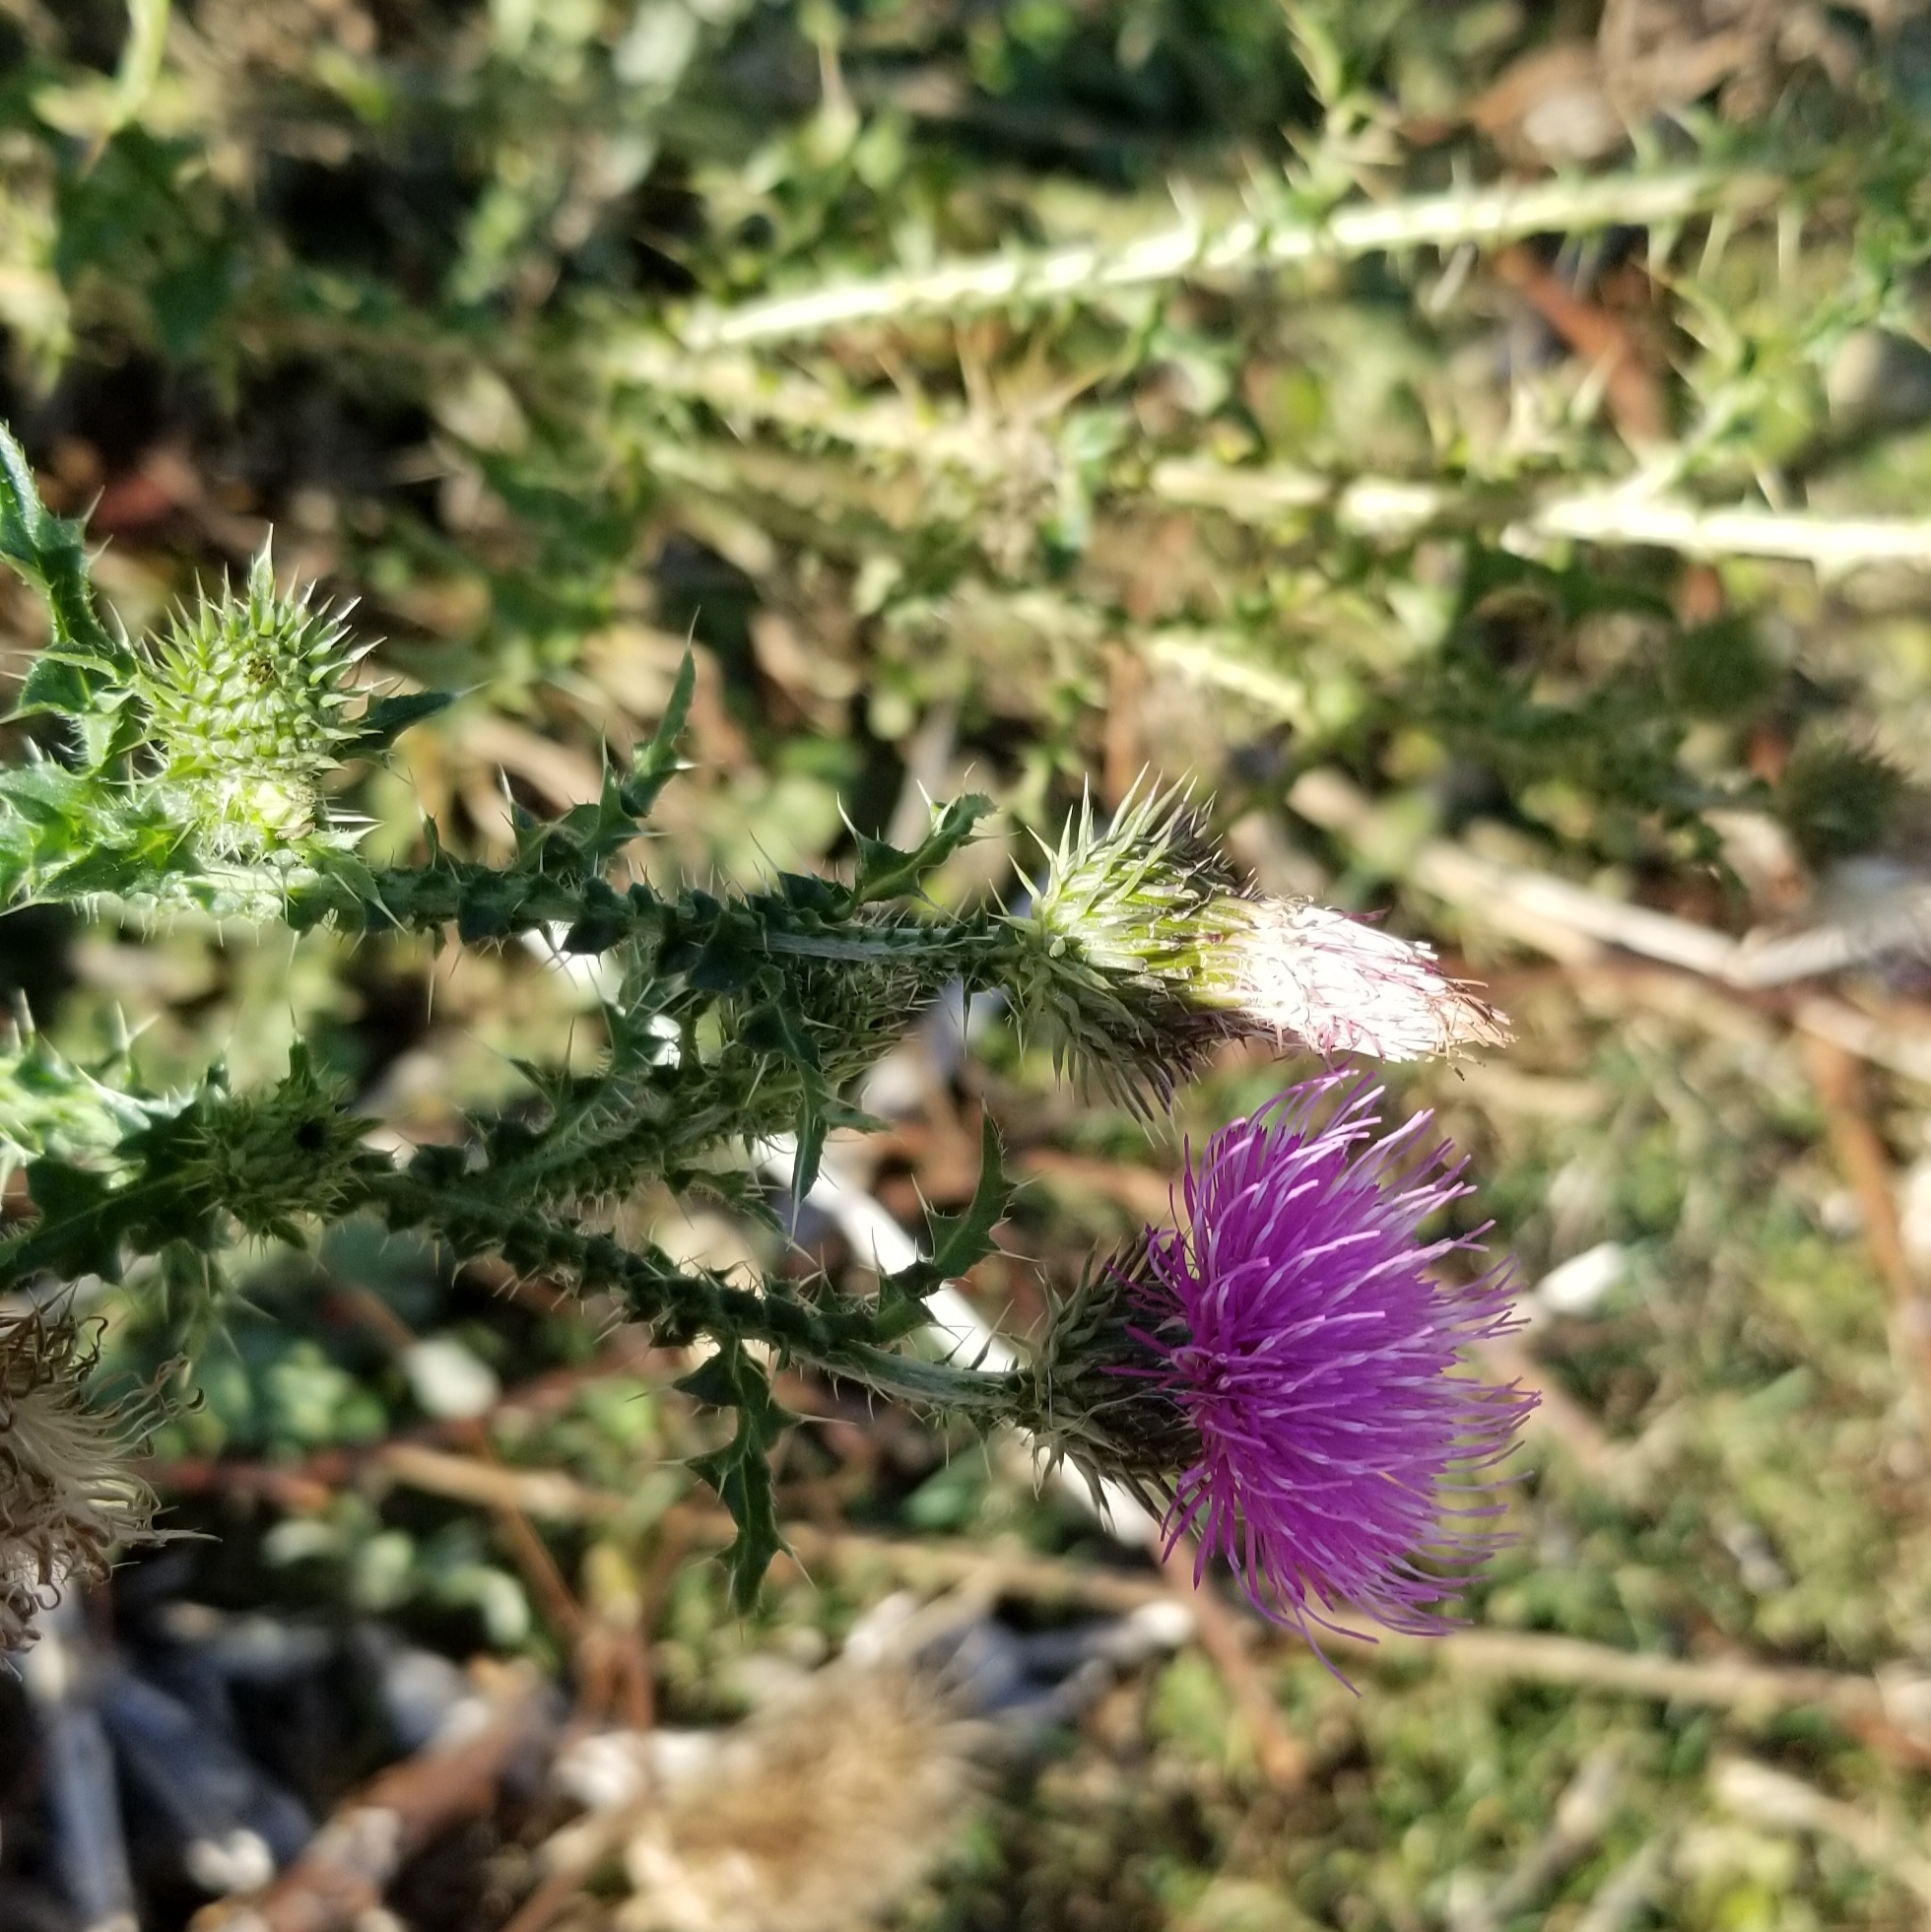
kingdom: Plantae
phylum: Tracheophyta
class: Magnoliopsida
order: Asterales
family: Asteraceae
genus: Carduus
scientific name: Carduus acanthoides
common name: Plumeless thistle
